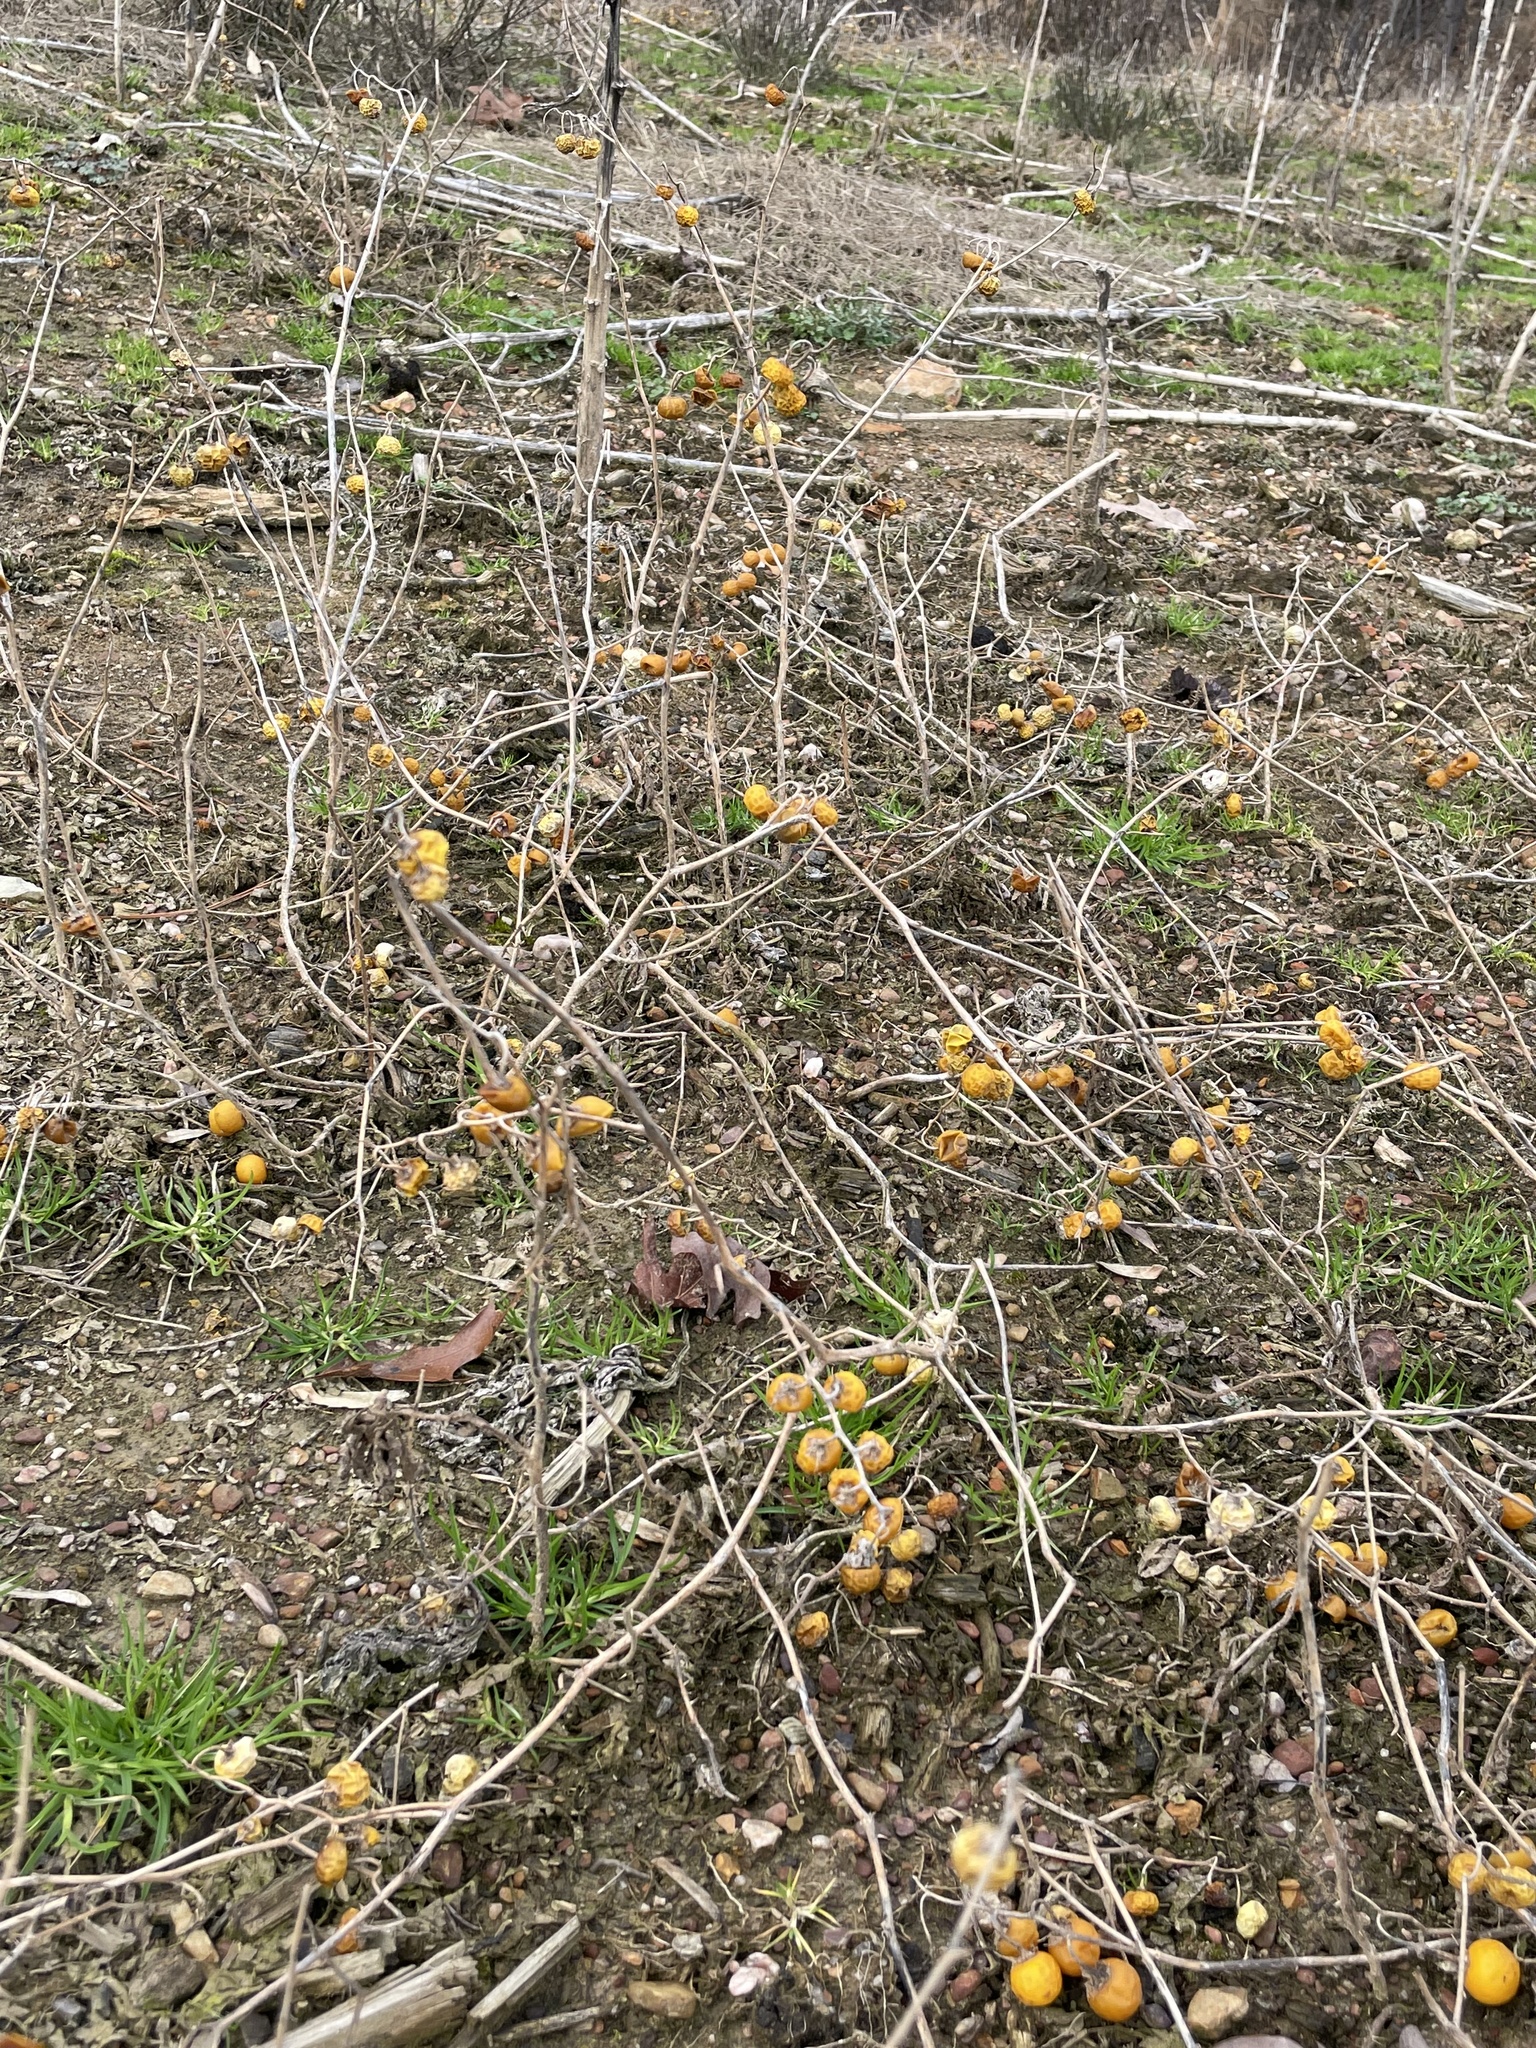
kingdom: Plantae
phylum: Tracheophyta
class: Magnoliopsida
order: Solanales
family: Solanaceae
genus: Solanum
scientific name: Solanum carolinense
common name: Horse-nettle
